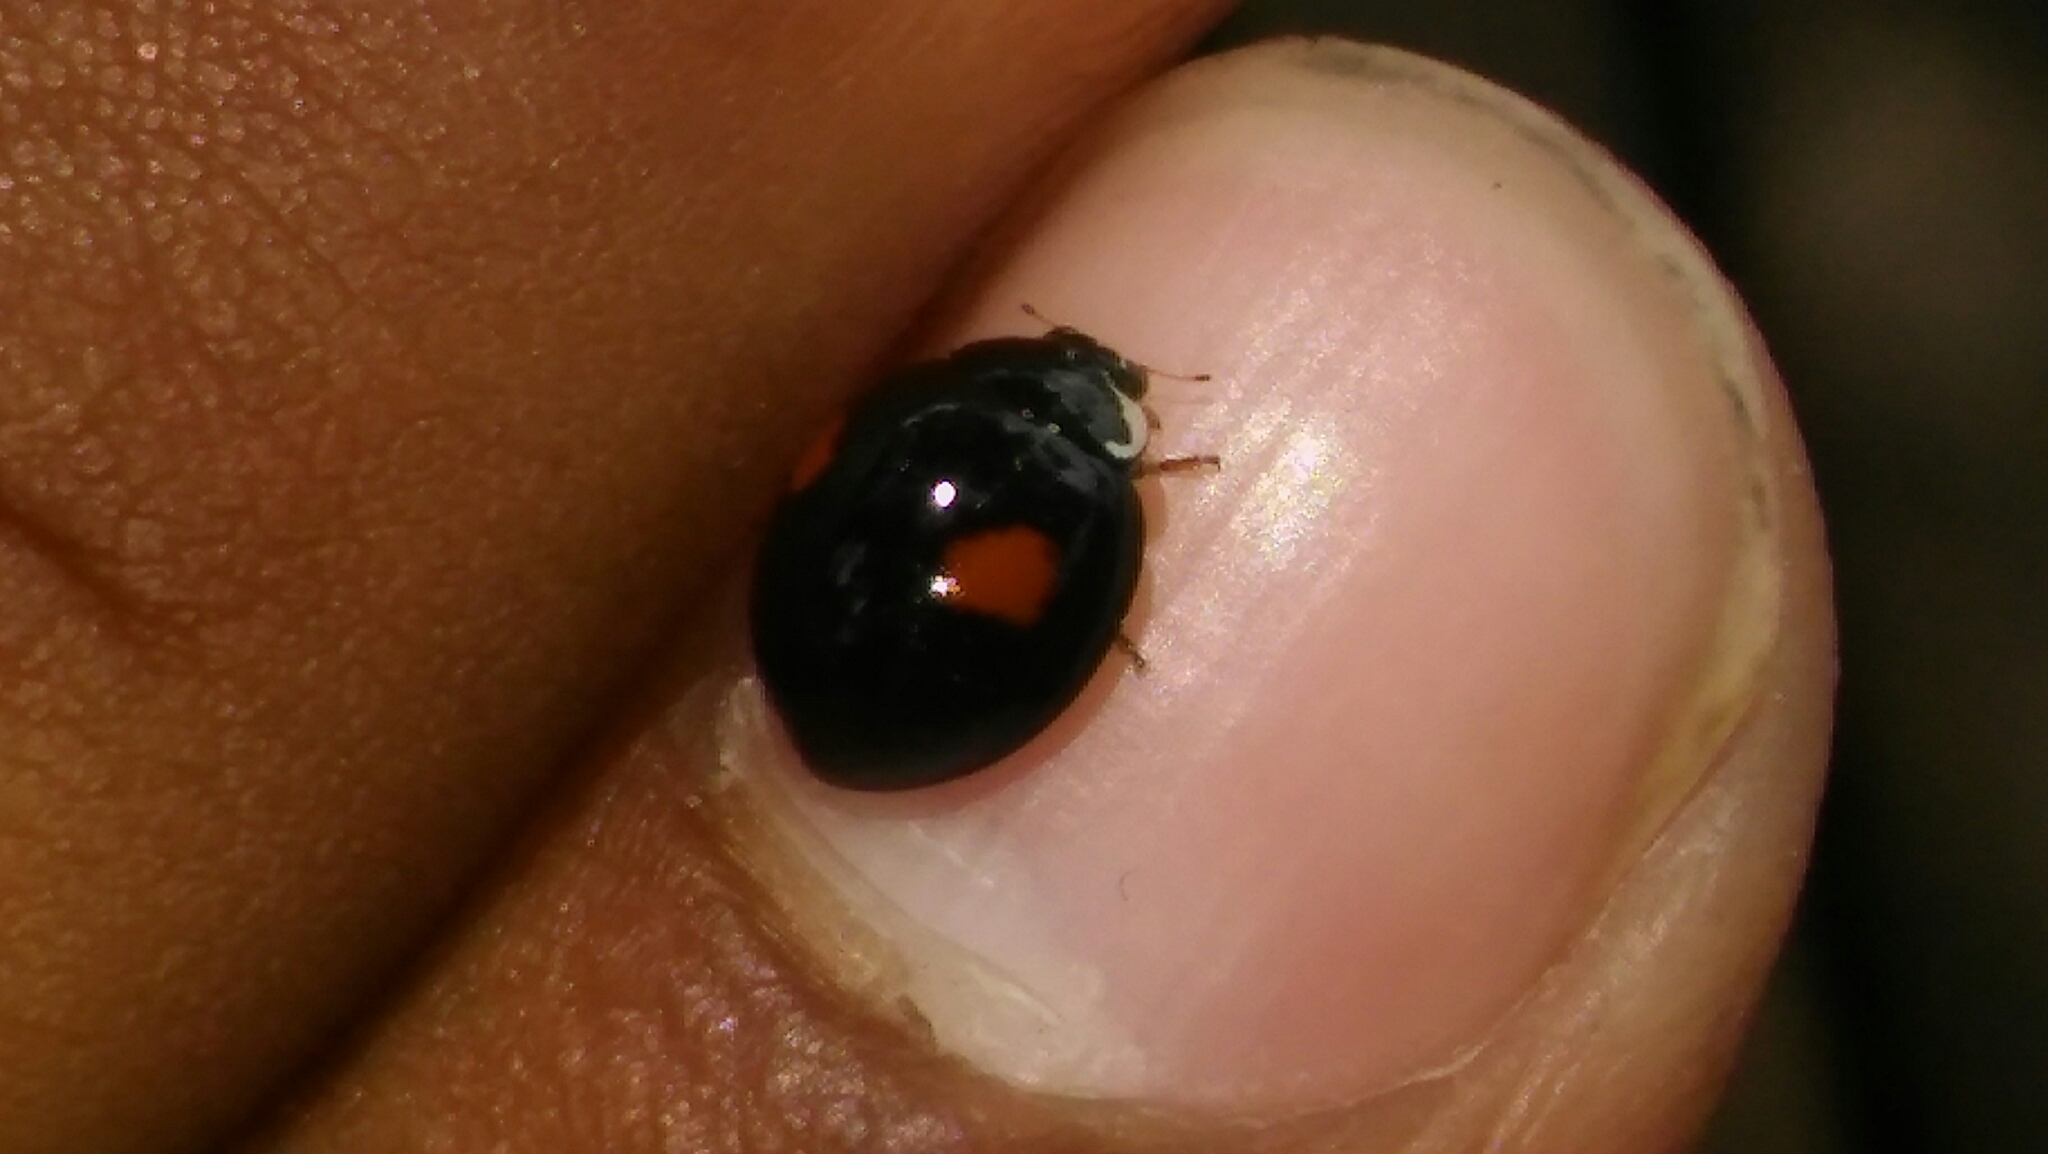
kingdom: Animalia
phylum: Arthropoda
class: Insecta
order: Coleoptera
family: Coccinellidae
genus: Olla
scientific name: Olla v-nigrum
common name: Ashy gray lady beetle
